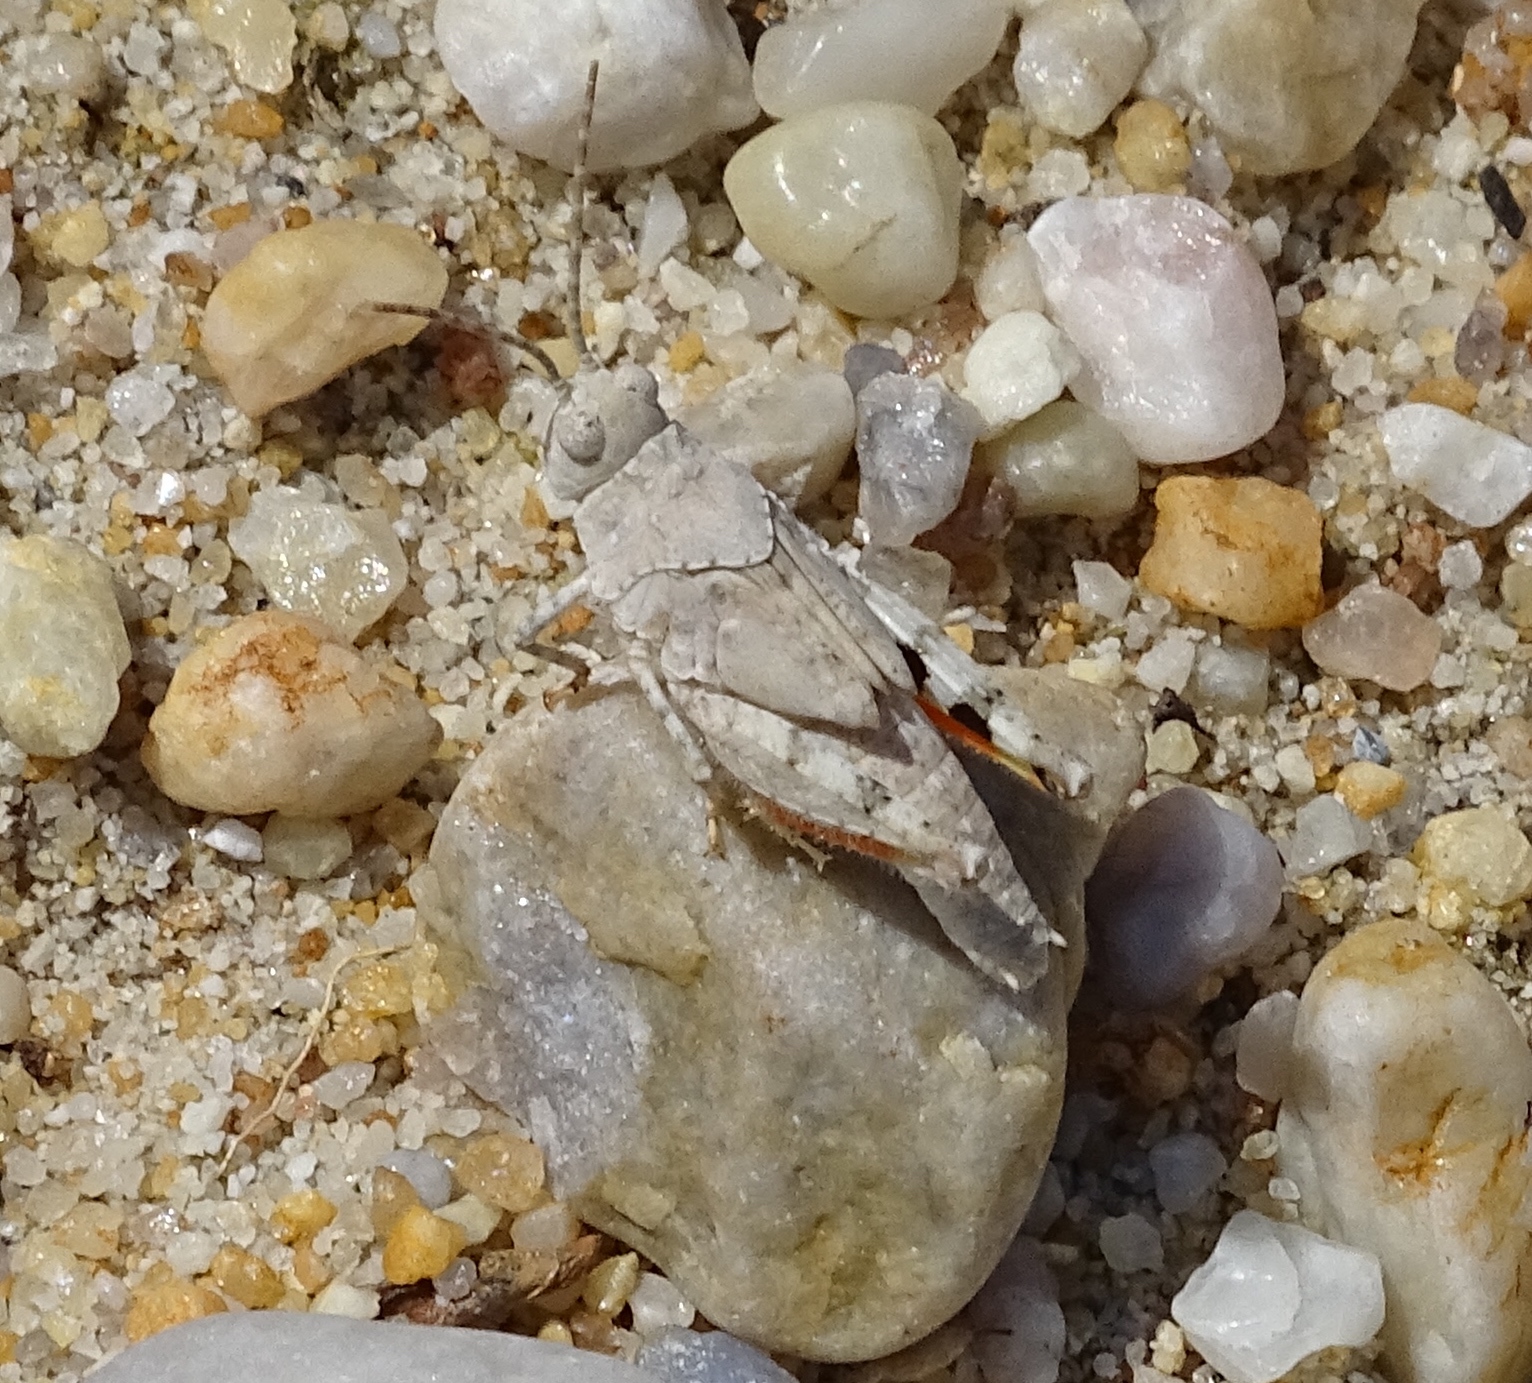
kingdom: Animalia
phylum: Arthropoda
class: Insecta
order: Orthoptera
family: Acrididae
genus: Trimerotropis
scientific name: Trimerotropis maritima
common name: Seaside locust
